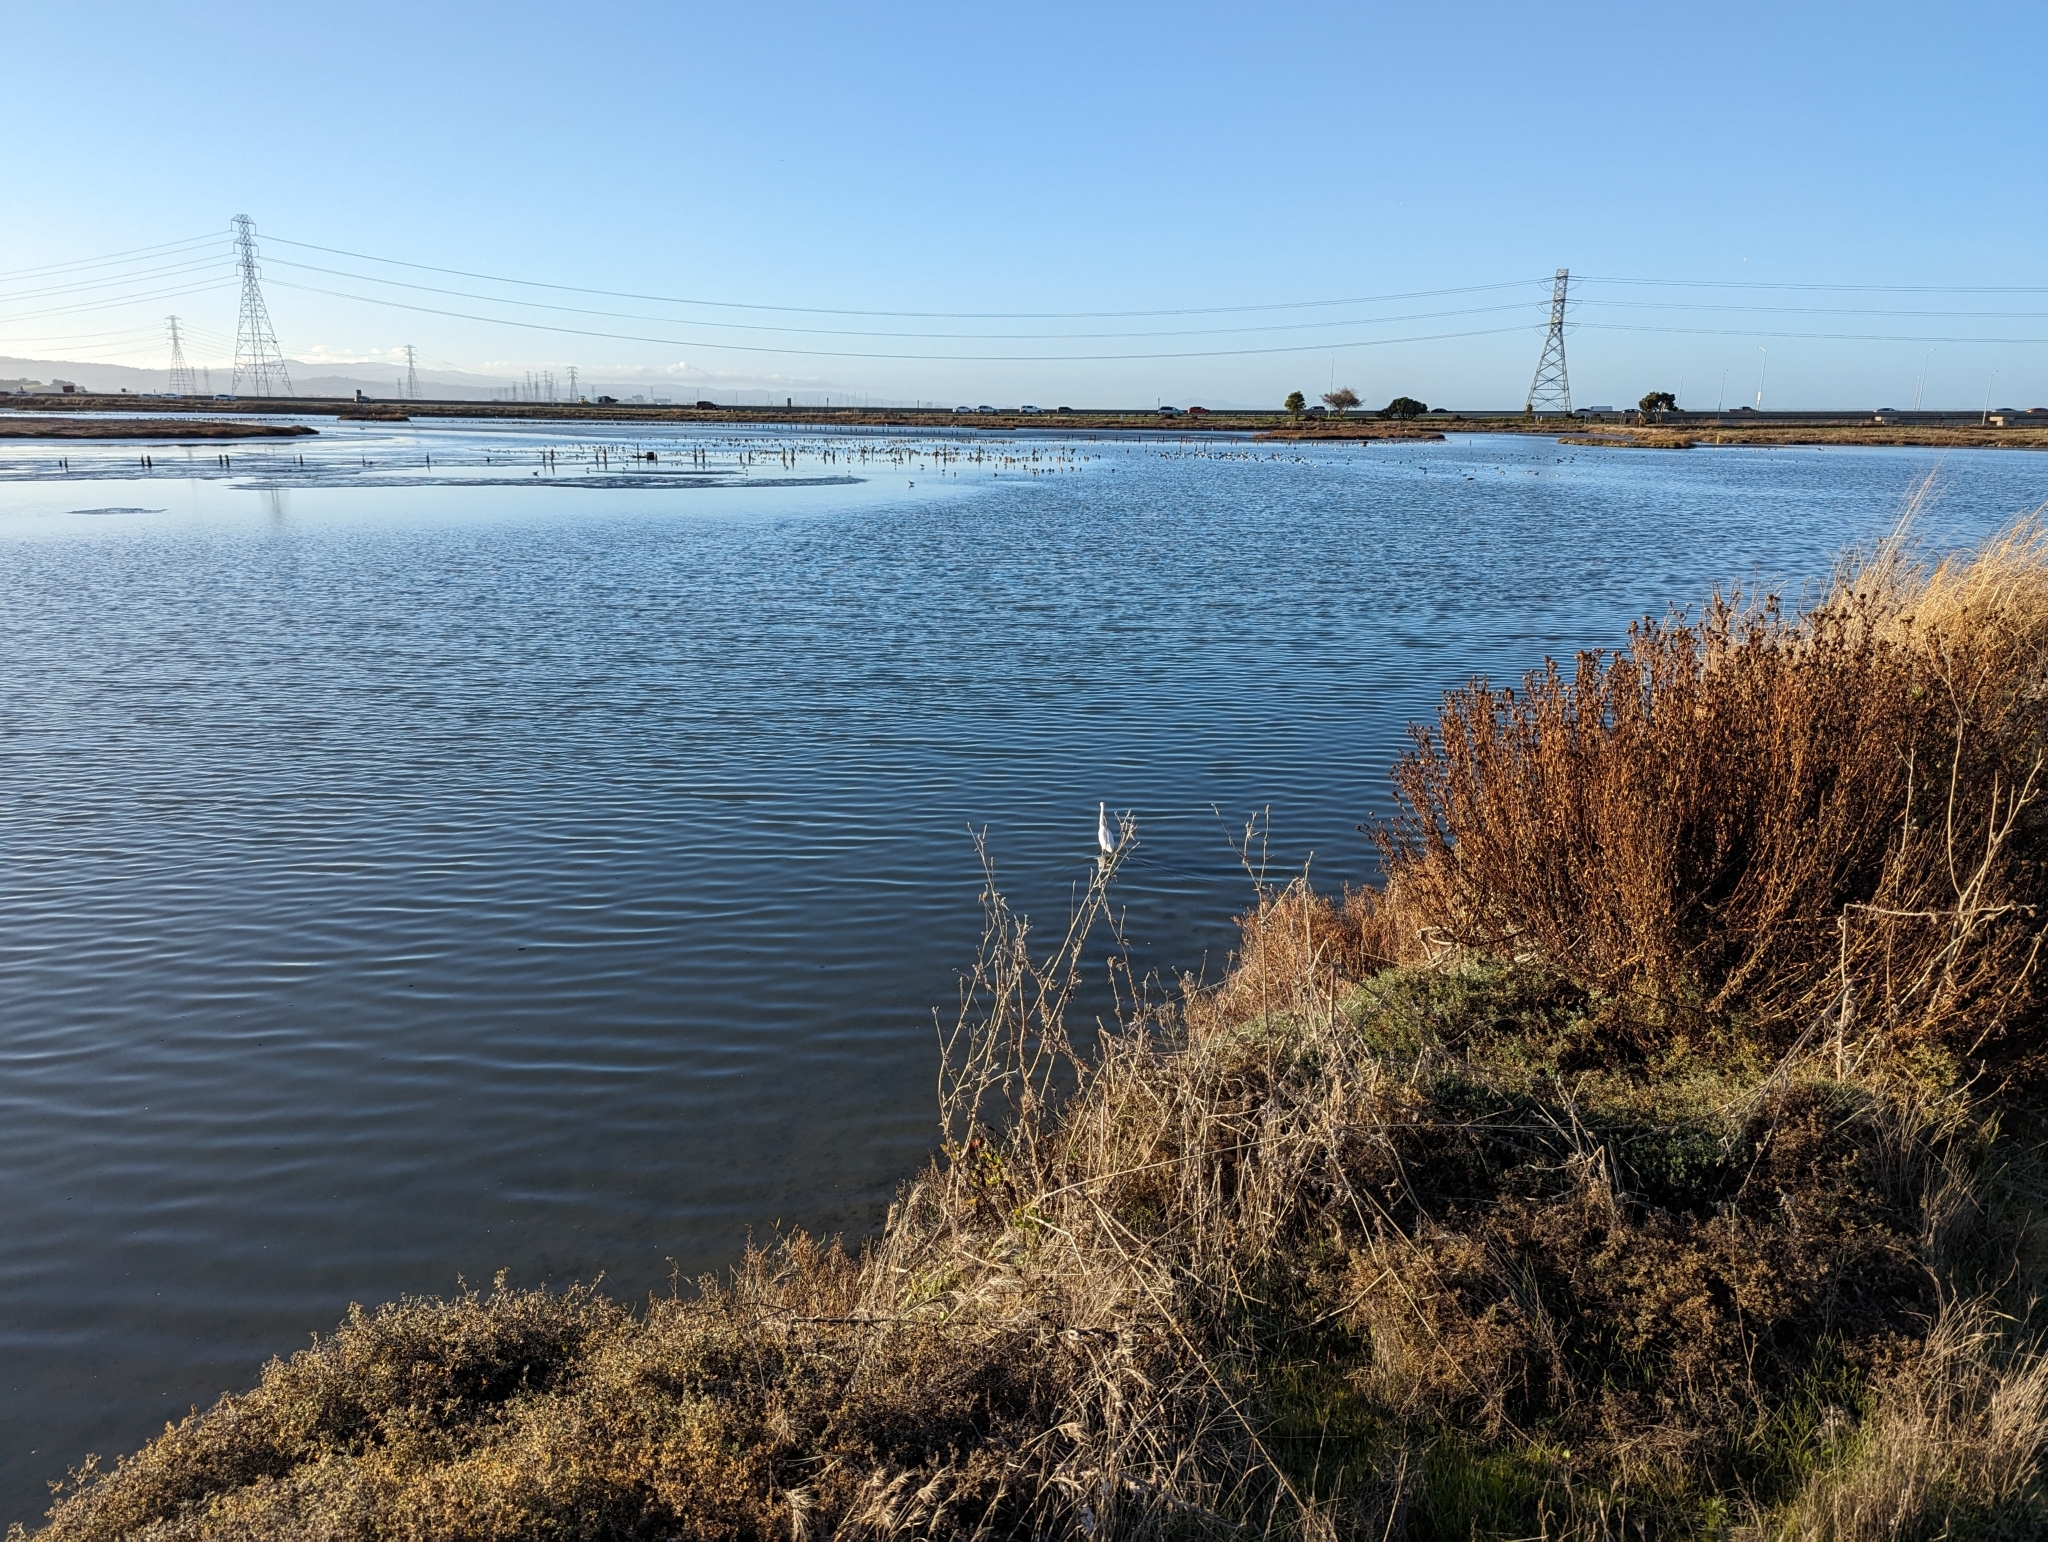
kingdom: Animalia
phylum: Chordata
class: Aves
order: Pelecaniformes
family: Ardeidae
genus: Egretta
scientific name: Egretta thula
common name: Snowy egret
